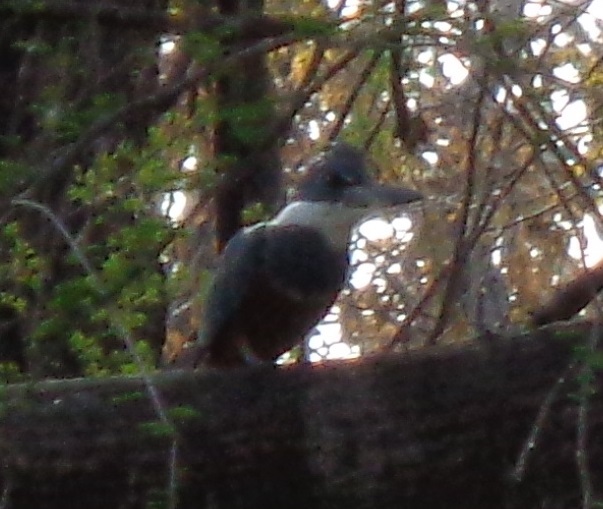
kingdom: Animalia
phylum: Chordata
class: Aves
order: Coraciiformes
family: Alcedinidae
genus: Megaceryle
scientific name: Megaceryle torquata
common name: Ringed kingfisher
